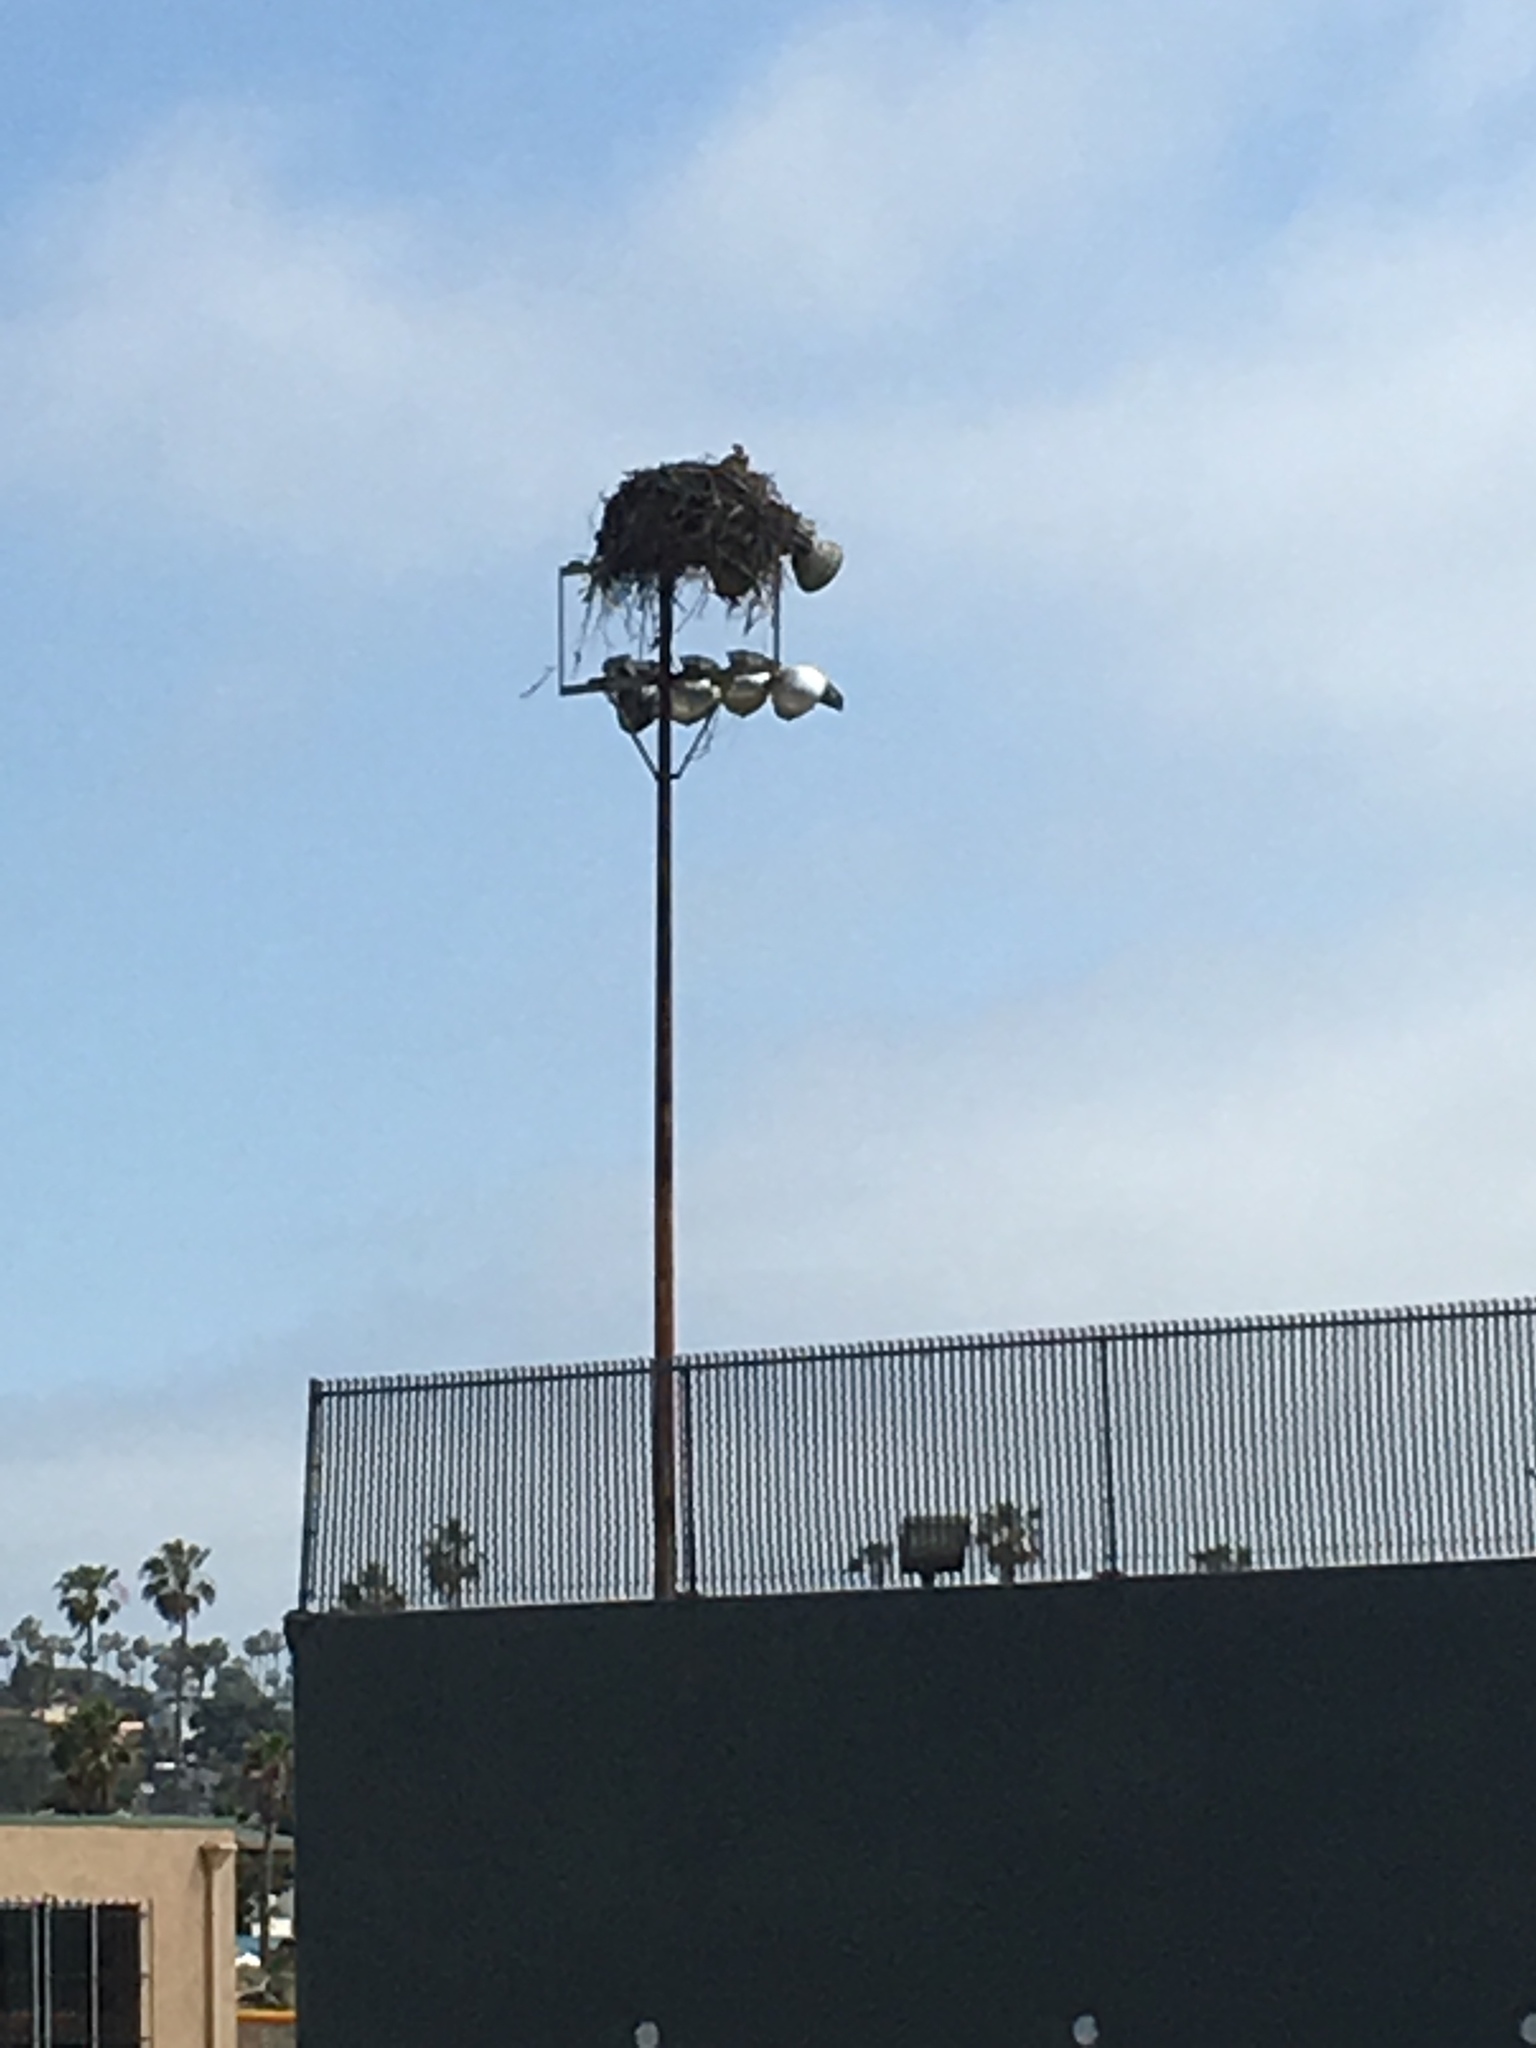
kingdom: Animalia
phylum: Chordata
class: Aves
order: Accipitriformes
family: Pandionidae
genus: Pandion
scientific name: Pandion haliaetus
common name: Osprey
